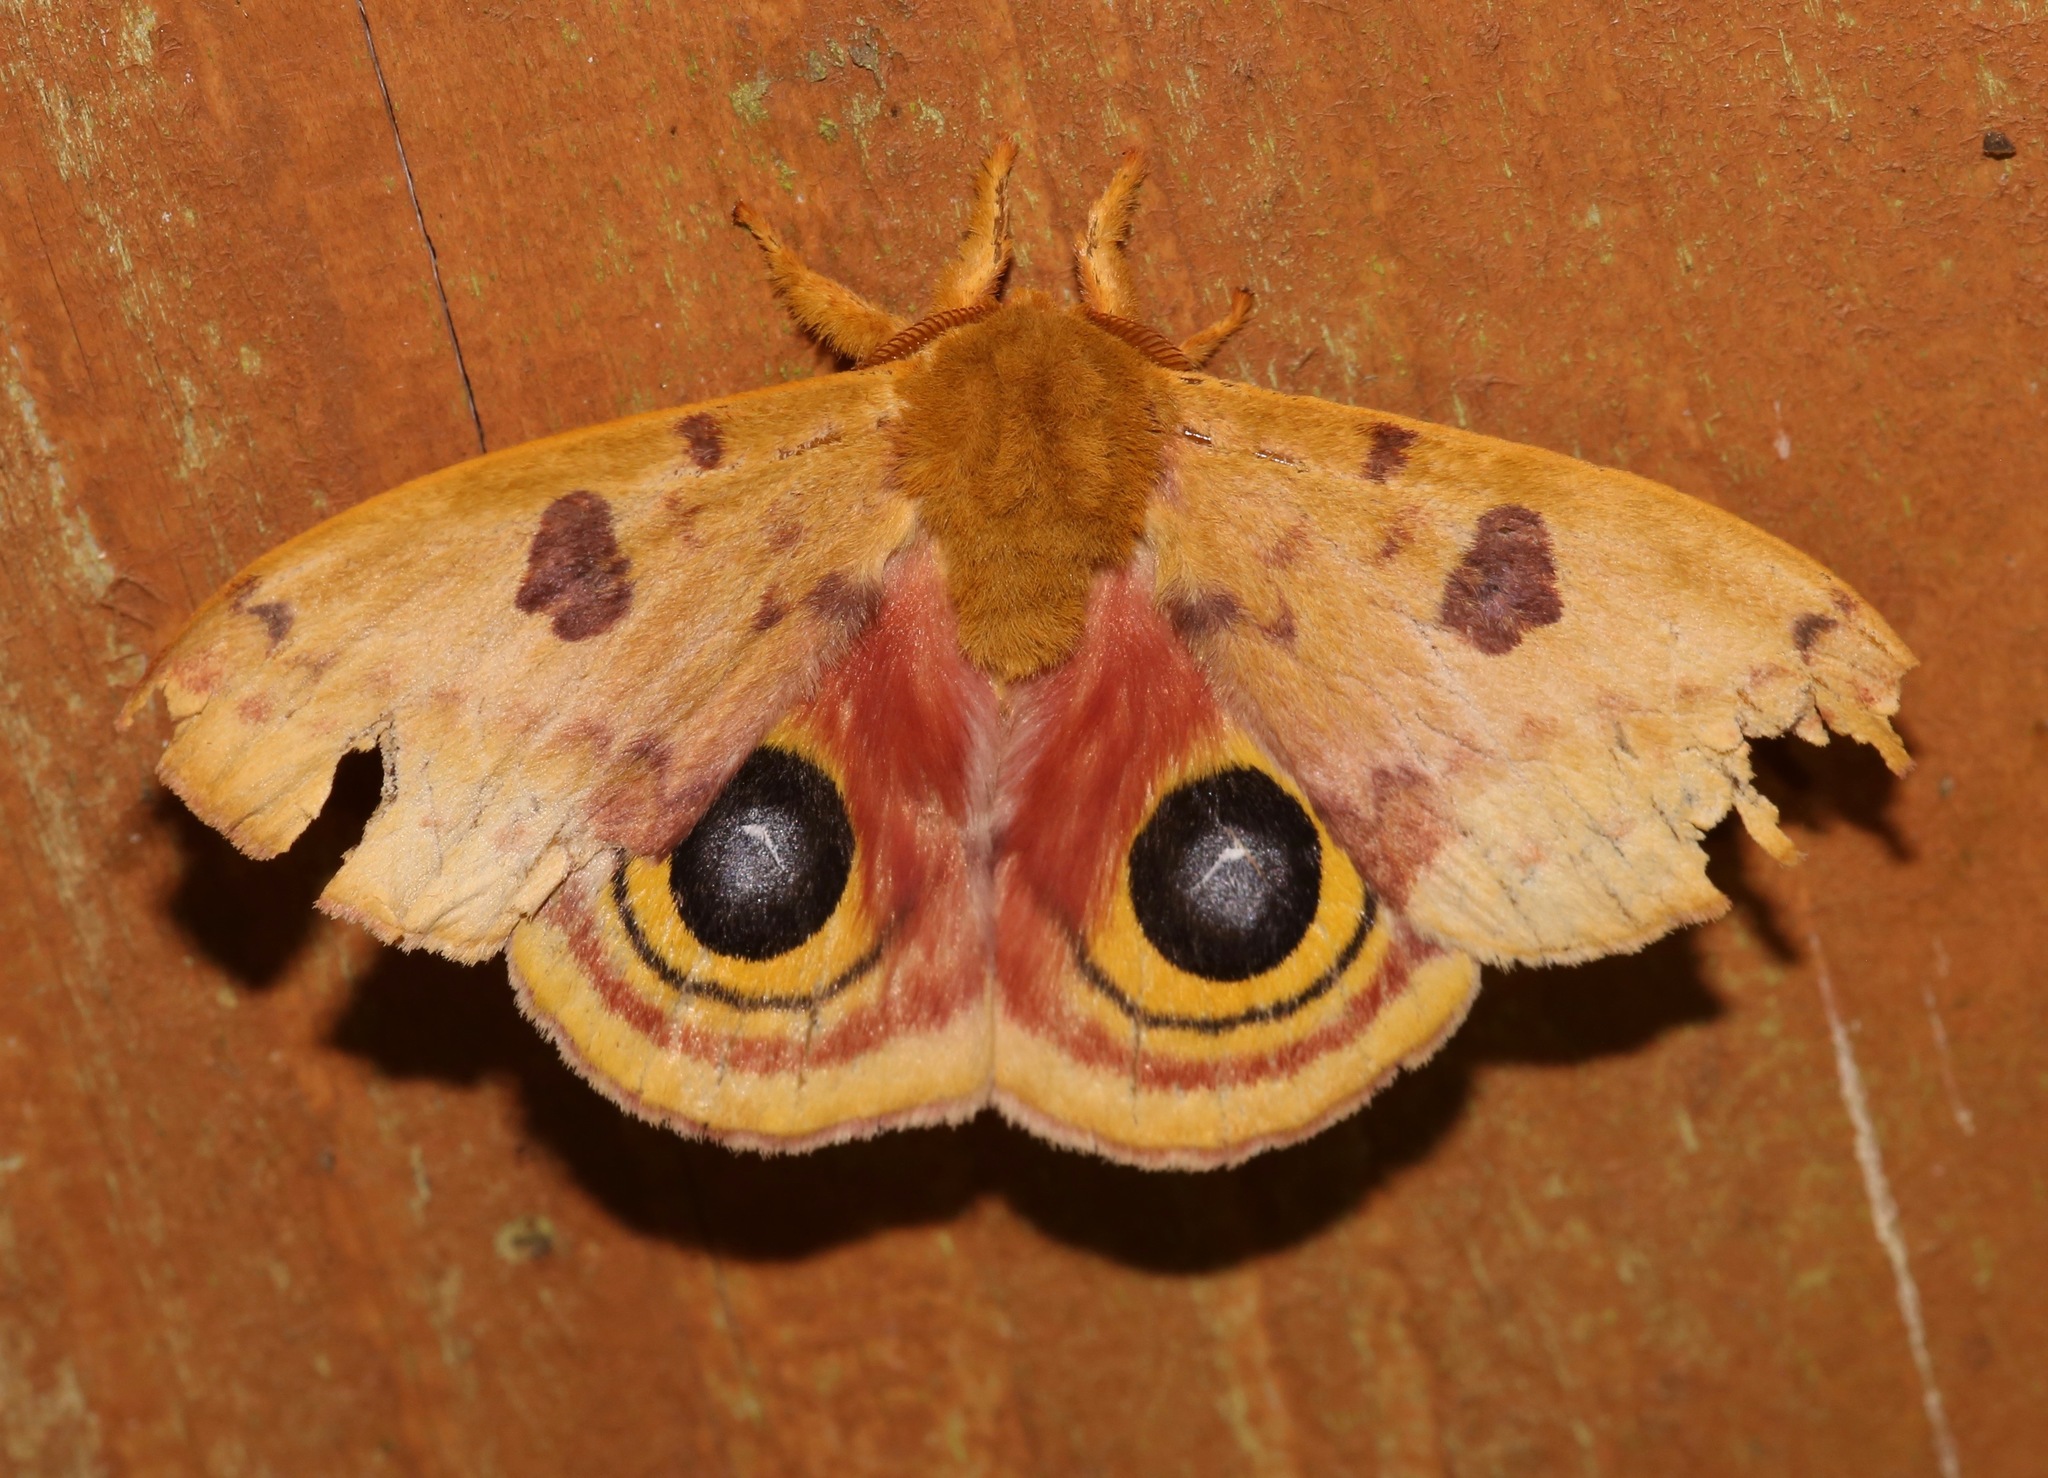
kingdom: Animalia
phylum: Arthropoda
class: Insecta
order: Lepidoptera
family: Saturniidae
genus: Automeris
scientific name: Automeris io
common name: Io moth
